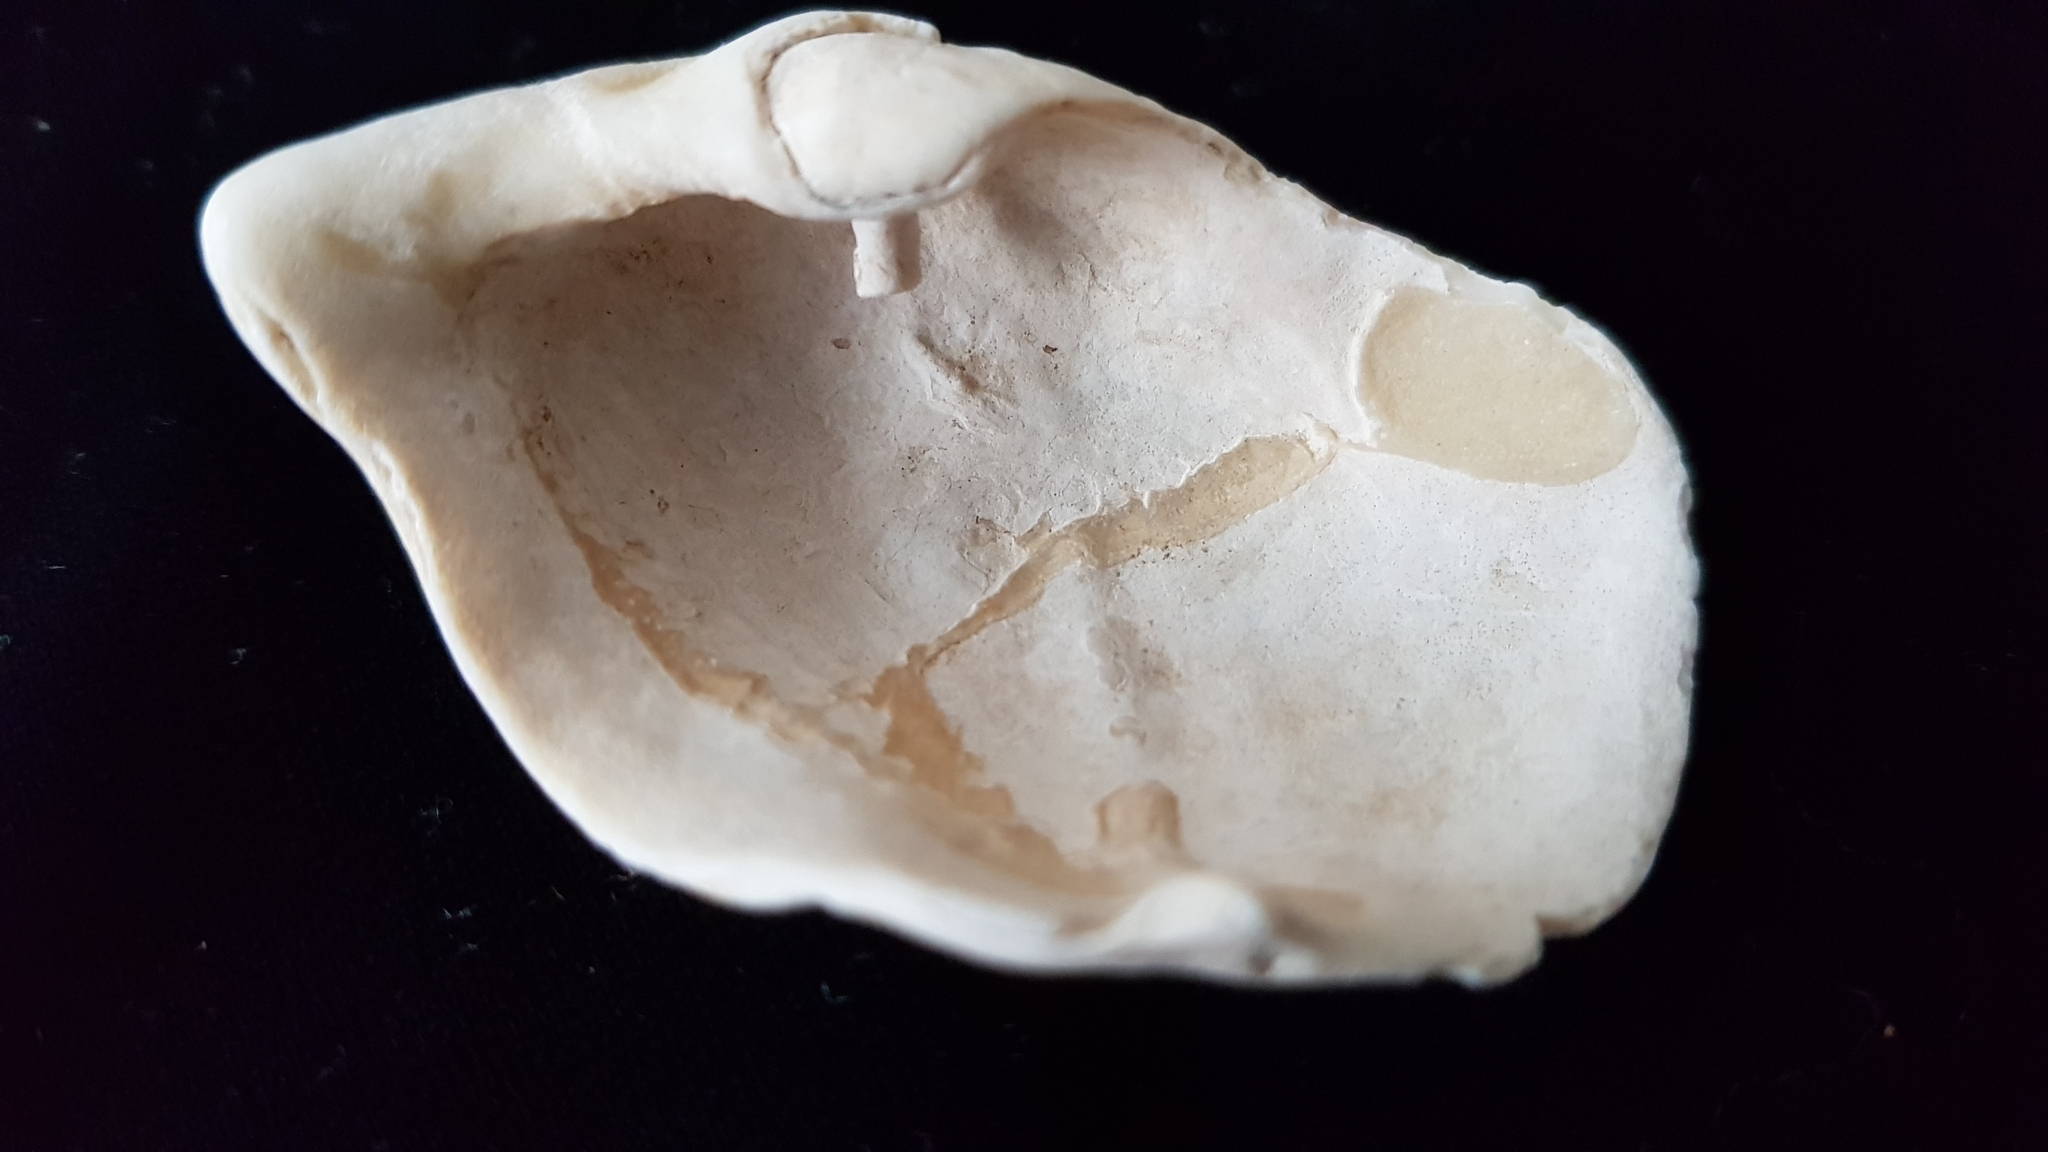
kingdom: Animalia
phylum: Mollusca
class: Bivalvia
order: Myida
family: Pholadidae
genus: Zirfaea
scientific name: Zirfaea crispata
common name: Oval piddock
